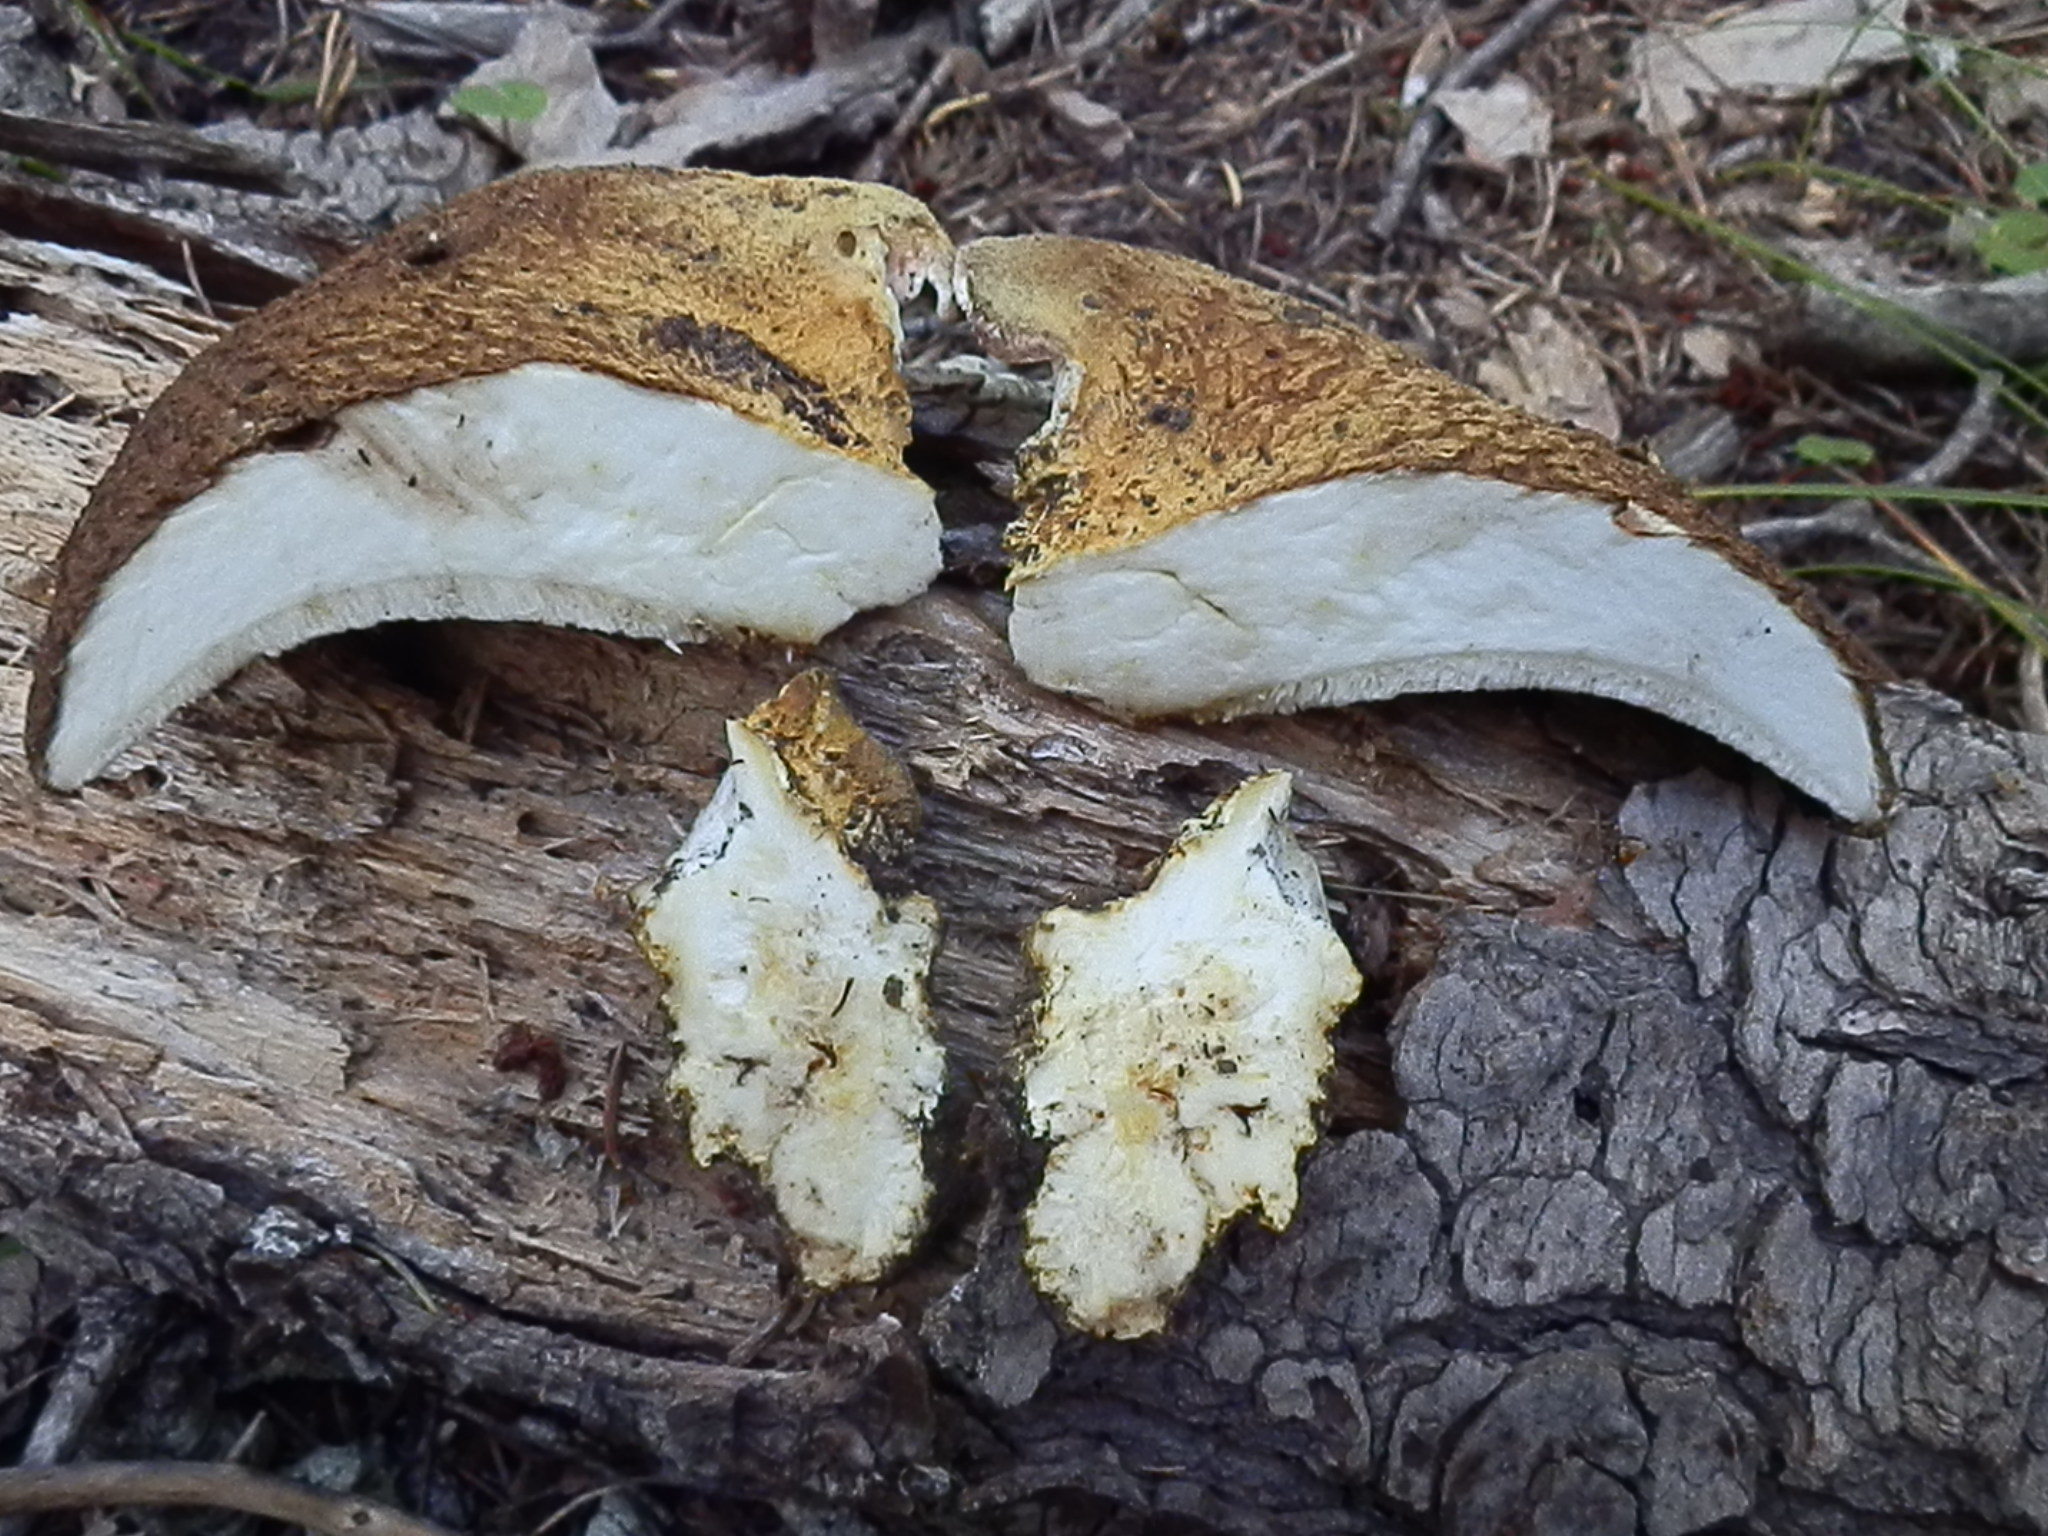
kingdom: Fungi
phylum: Basidiomycota
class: Agaricomycetes
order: Russulales
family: Albatrellaceae
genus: Albatrellopsis
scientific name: Albatrellopsis ellisii
